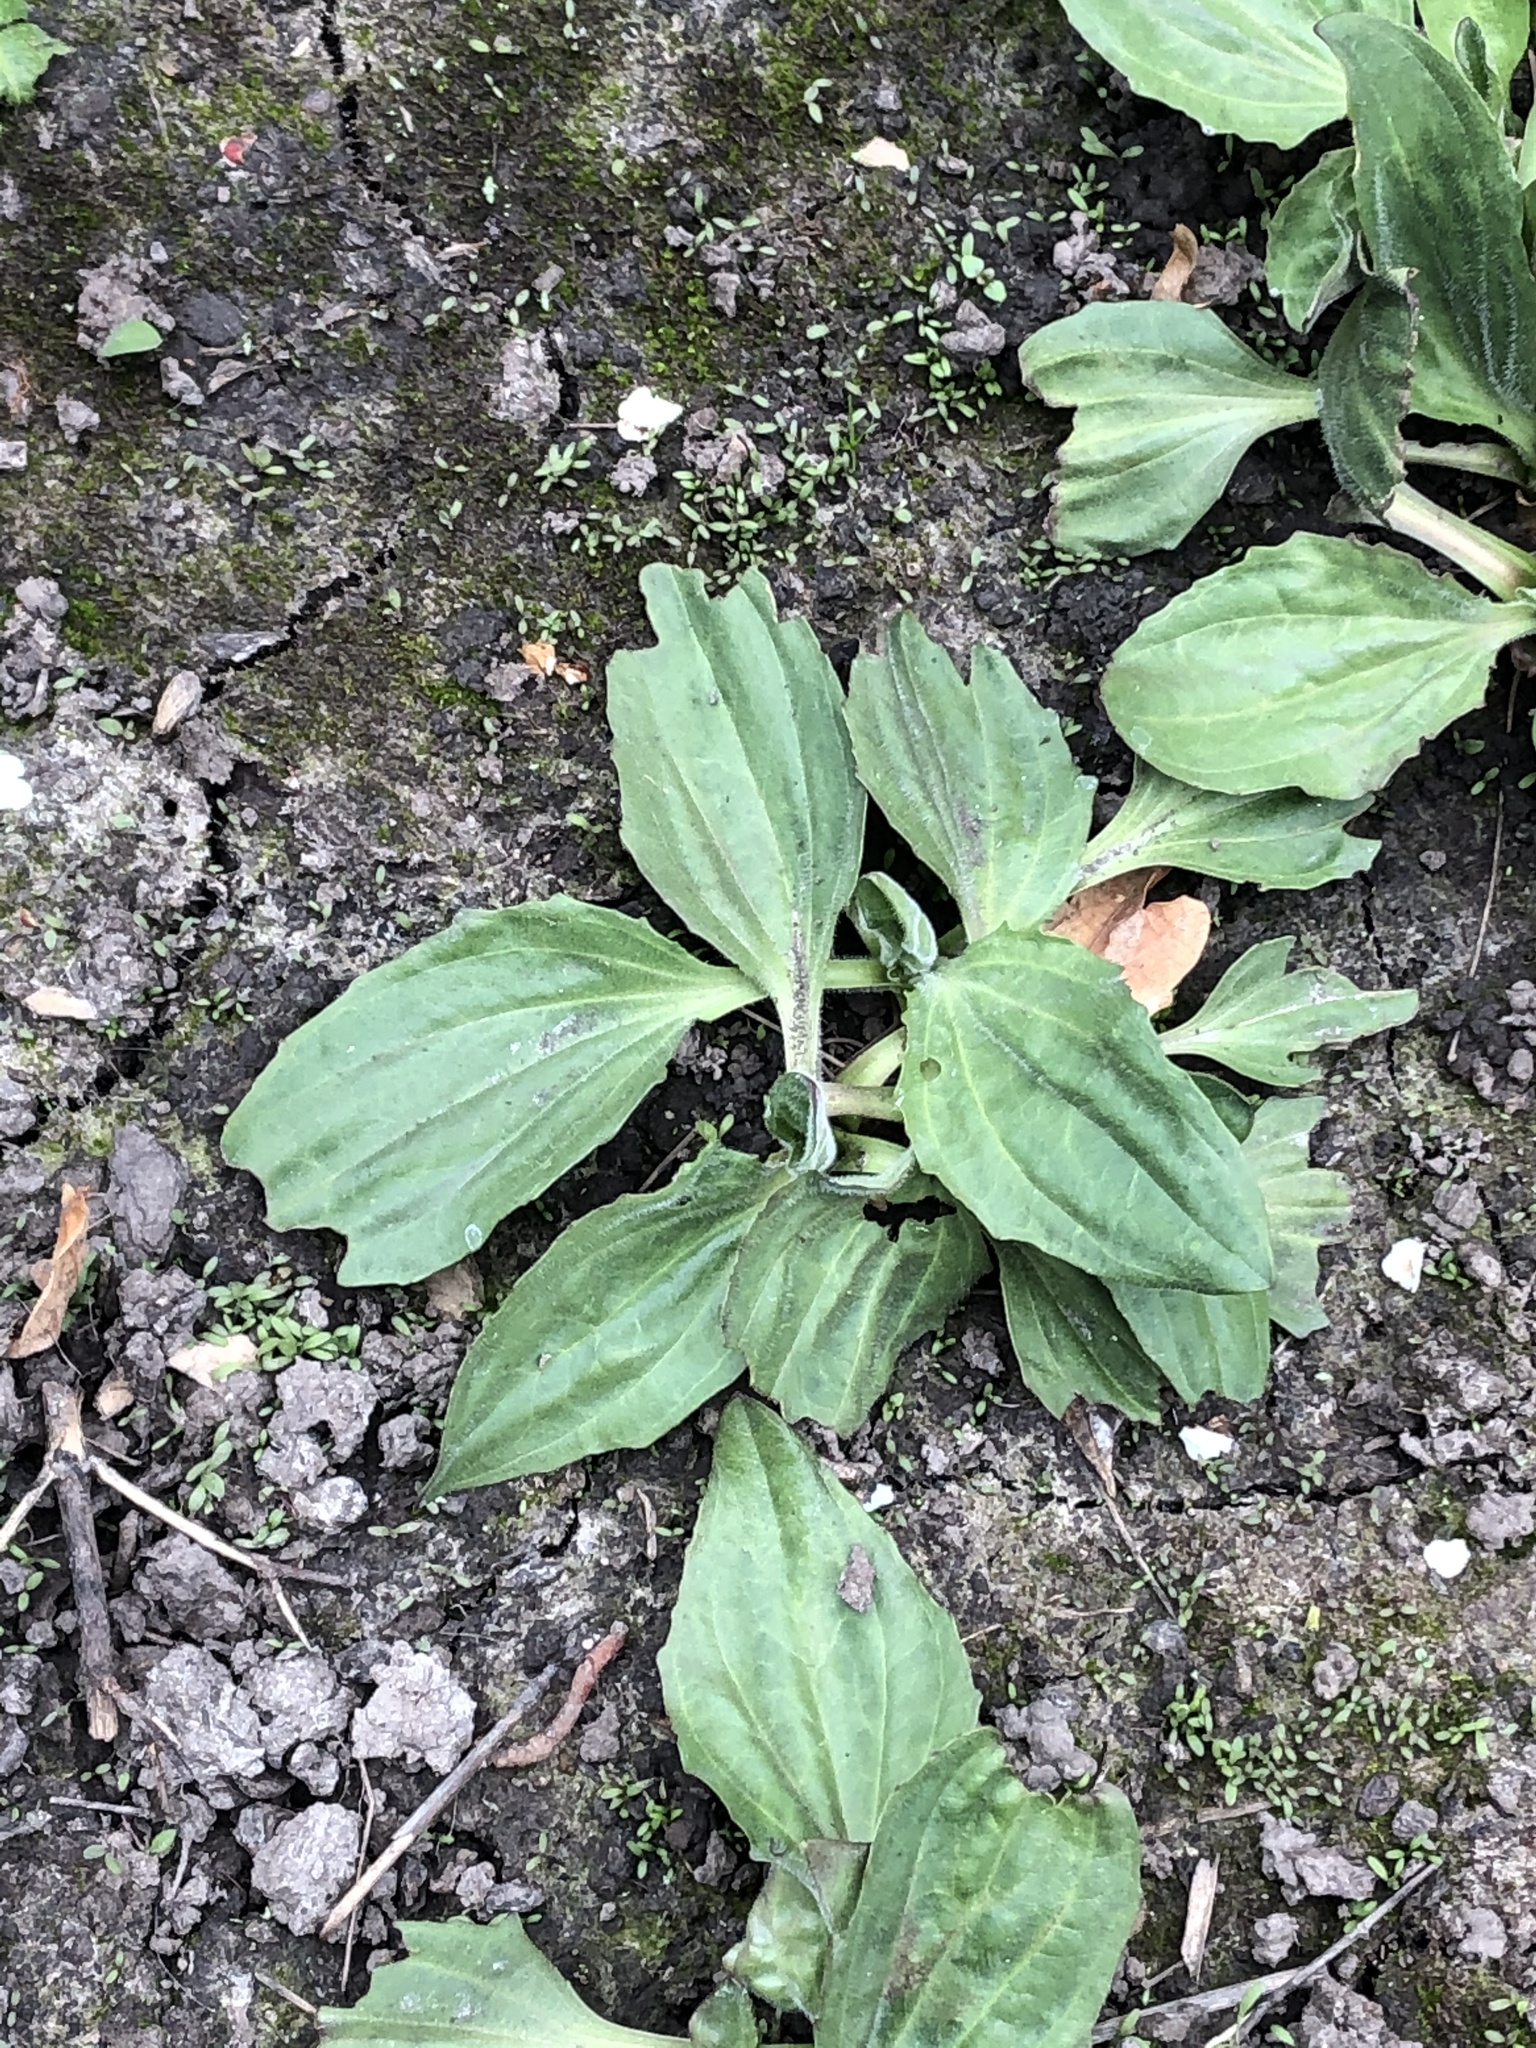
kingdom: Plantae
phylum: Tracheophyta
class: Magnoliopsida
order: Lamiales
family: Plantaginaceae
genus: Plantago
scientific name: Plantago major
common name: Common plantain
